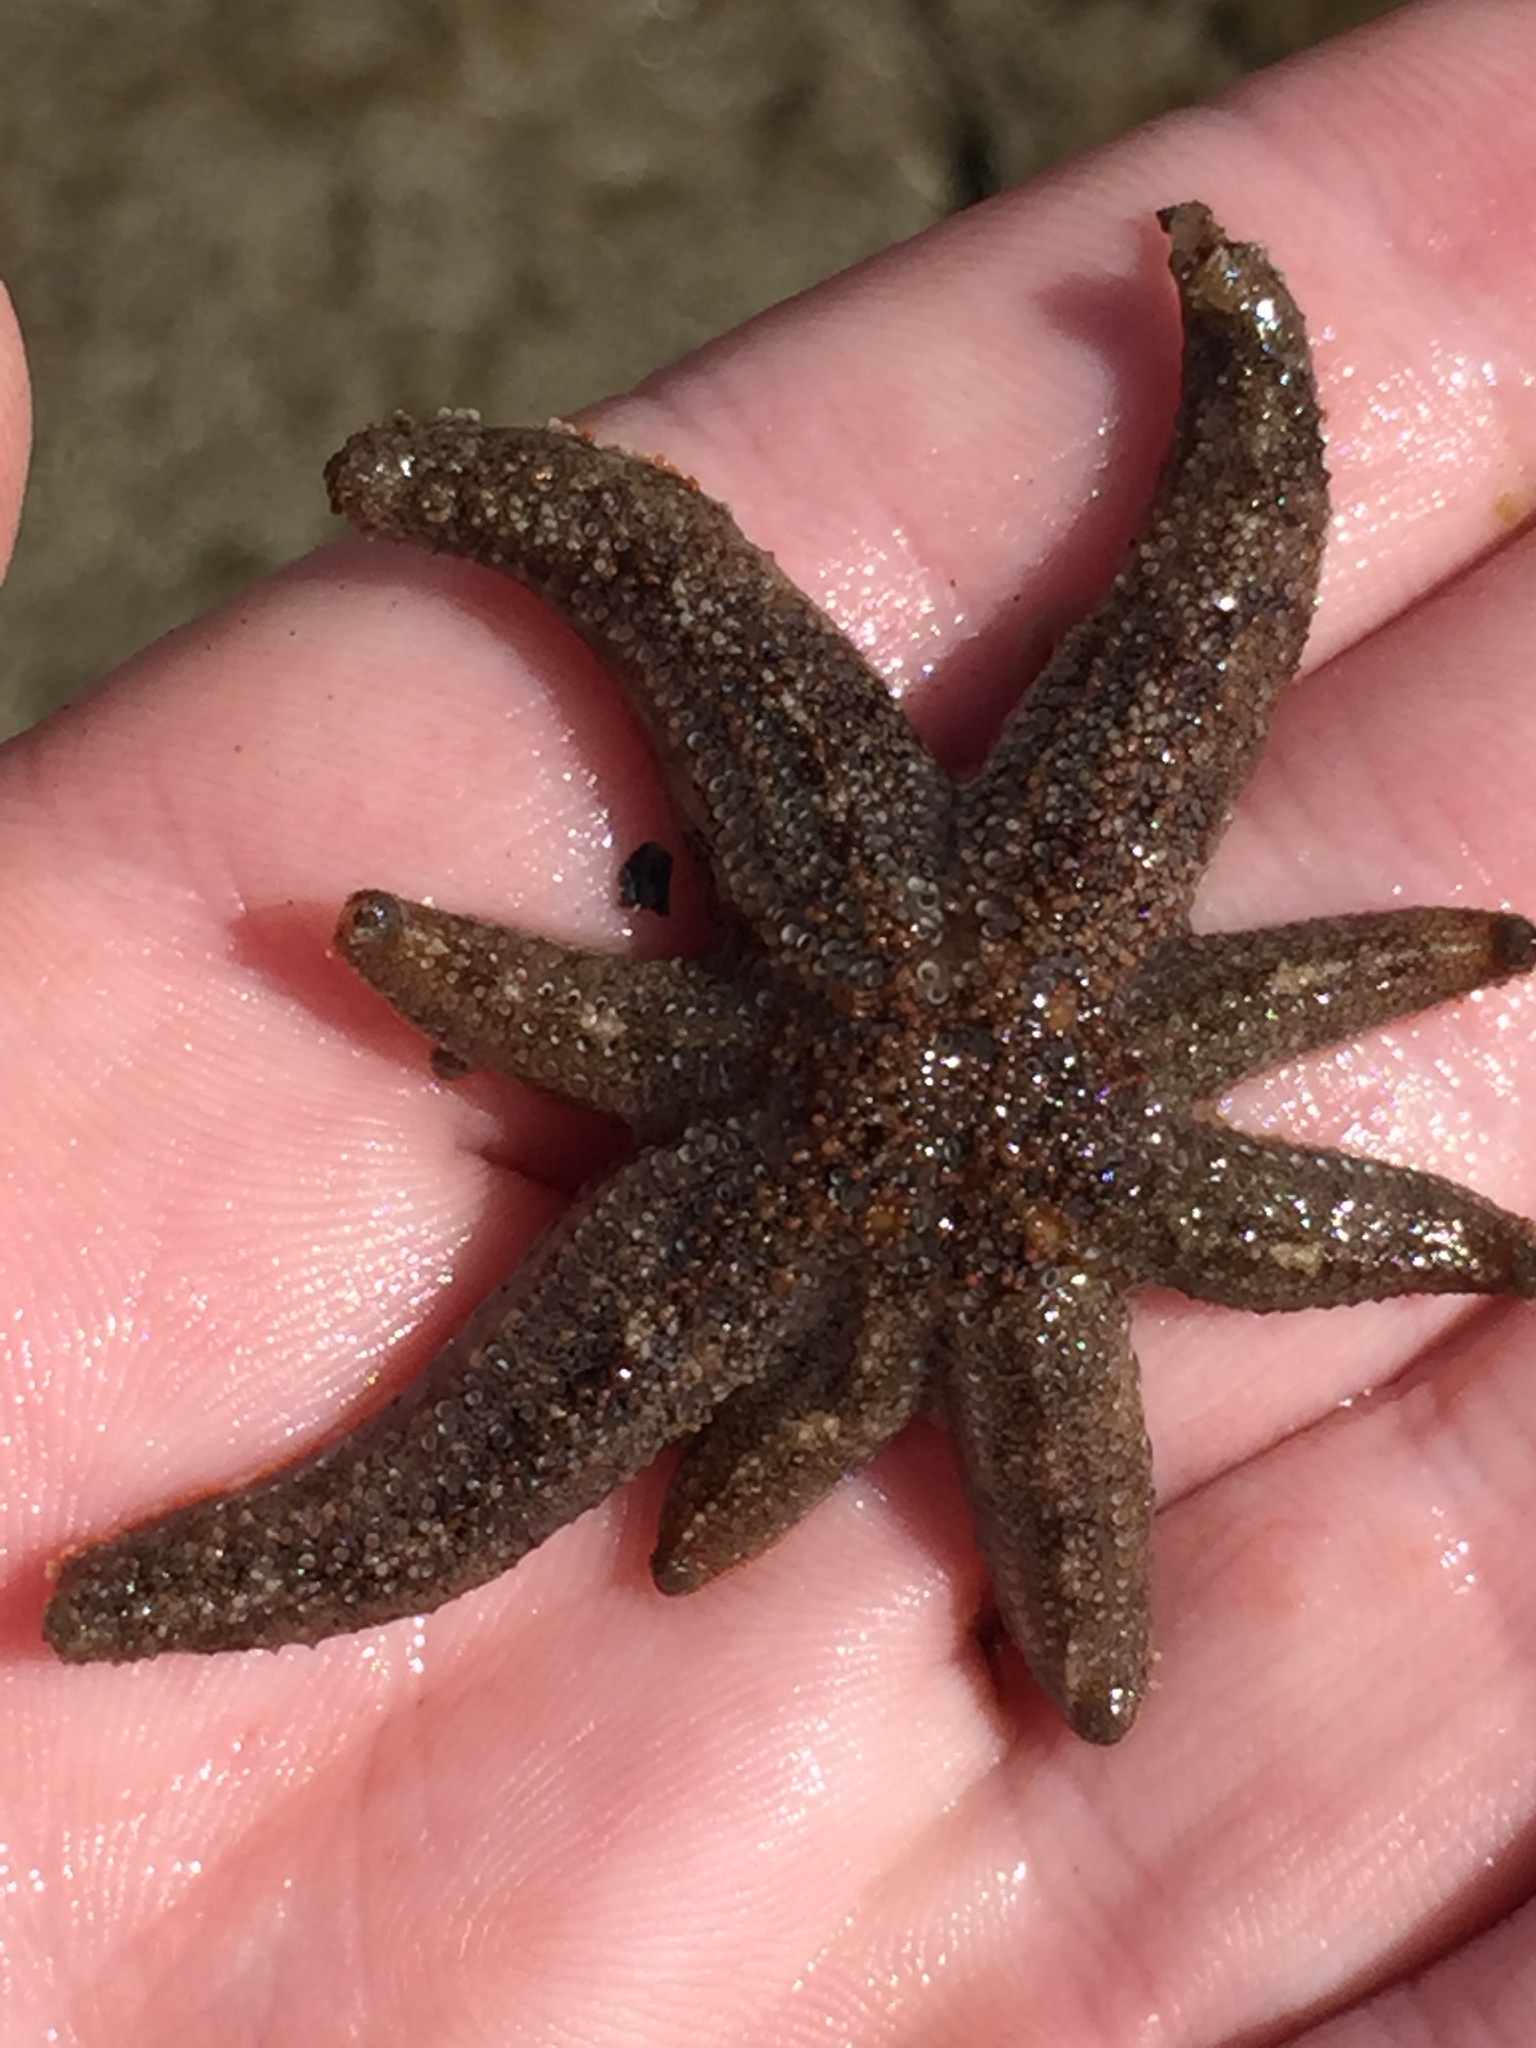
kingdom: Animalia
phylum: Echinodermata
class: Asteroidea
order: Forcipulatida
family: Stichasteridae
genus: Allostichaster
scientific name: Allostichaster polyplax
